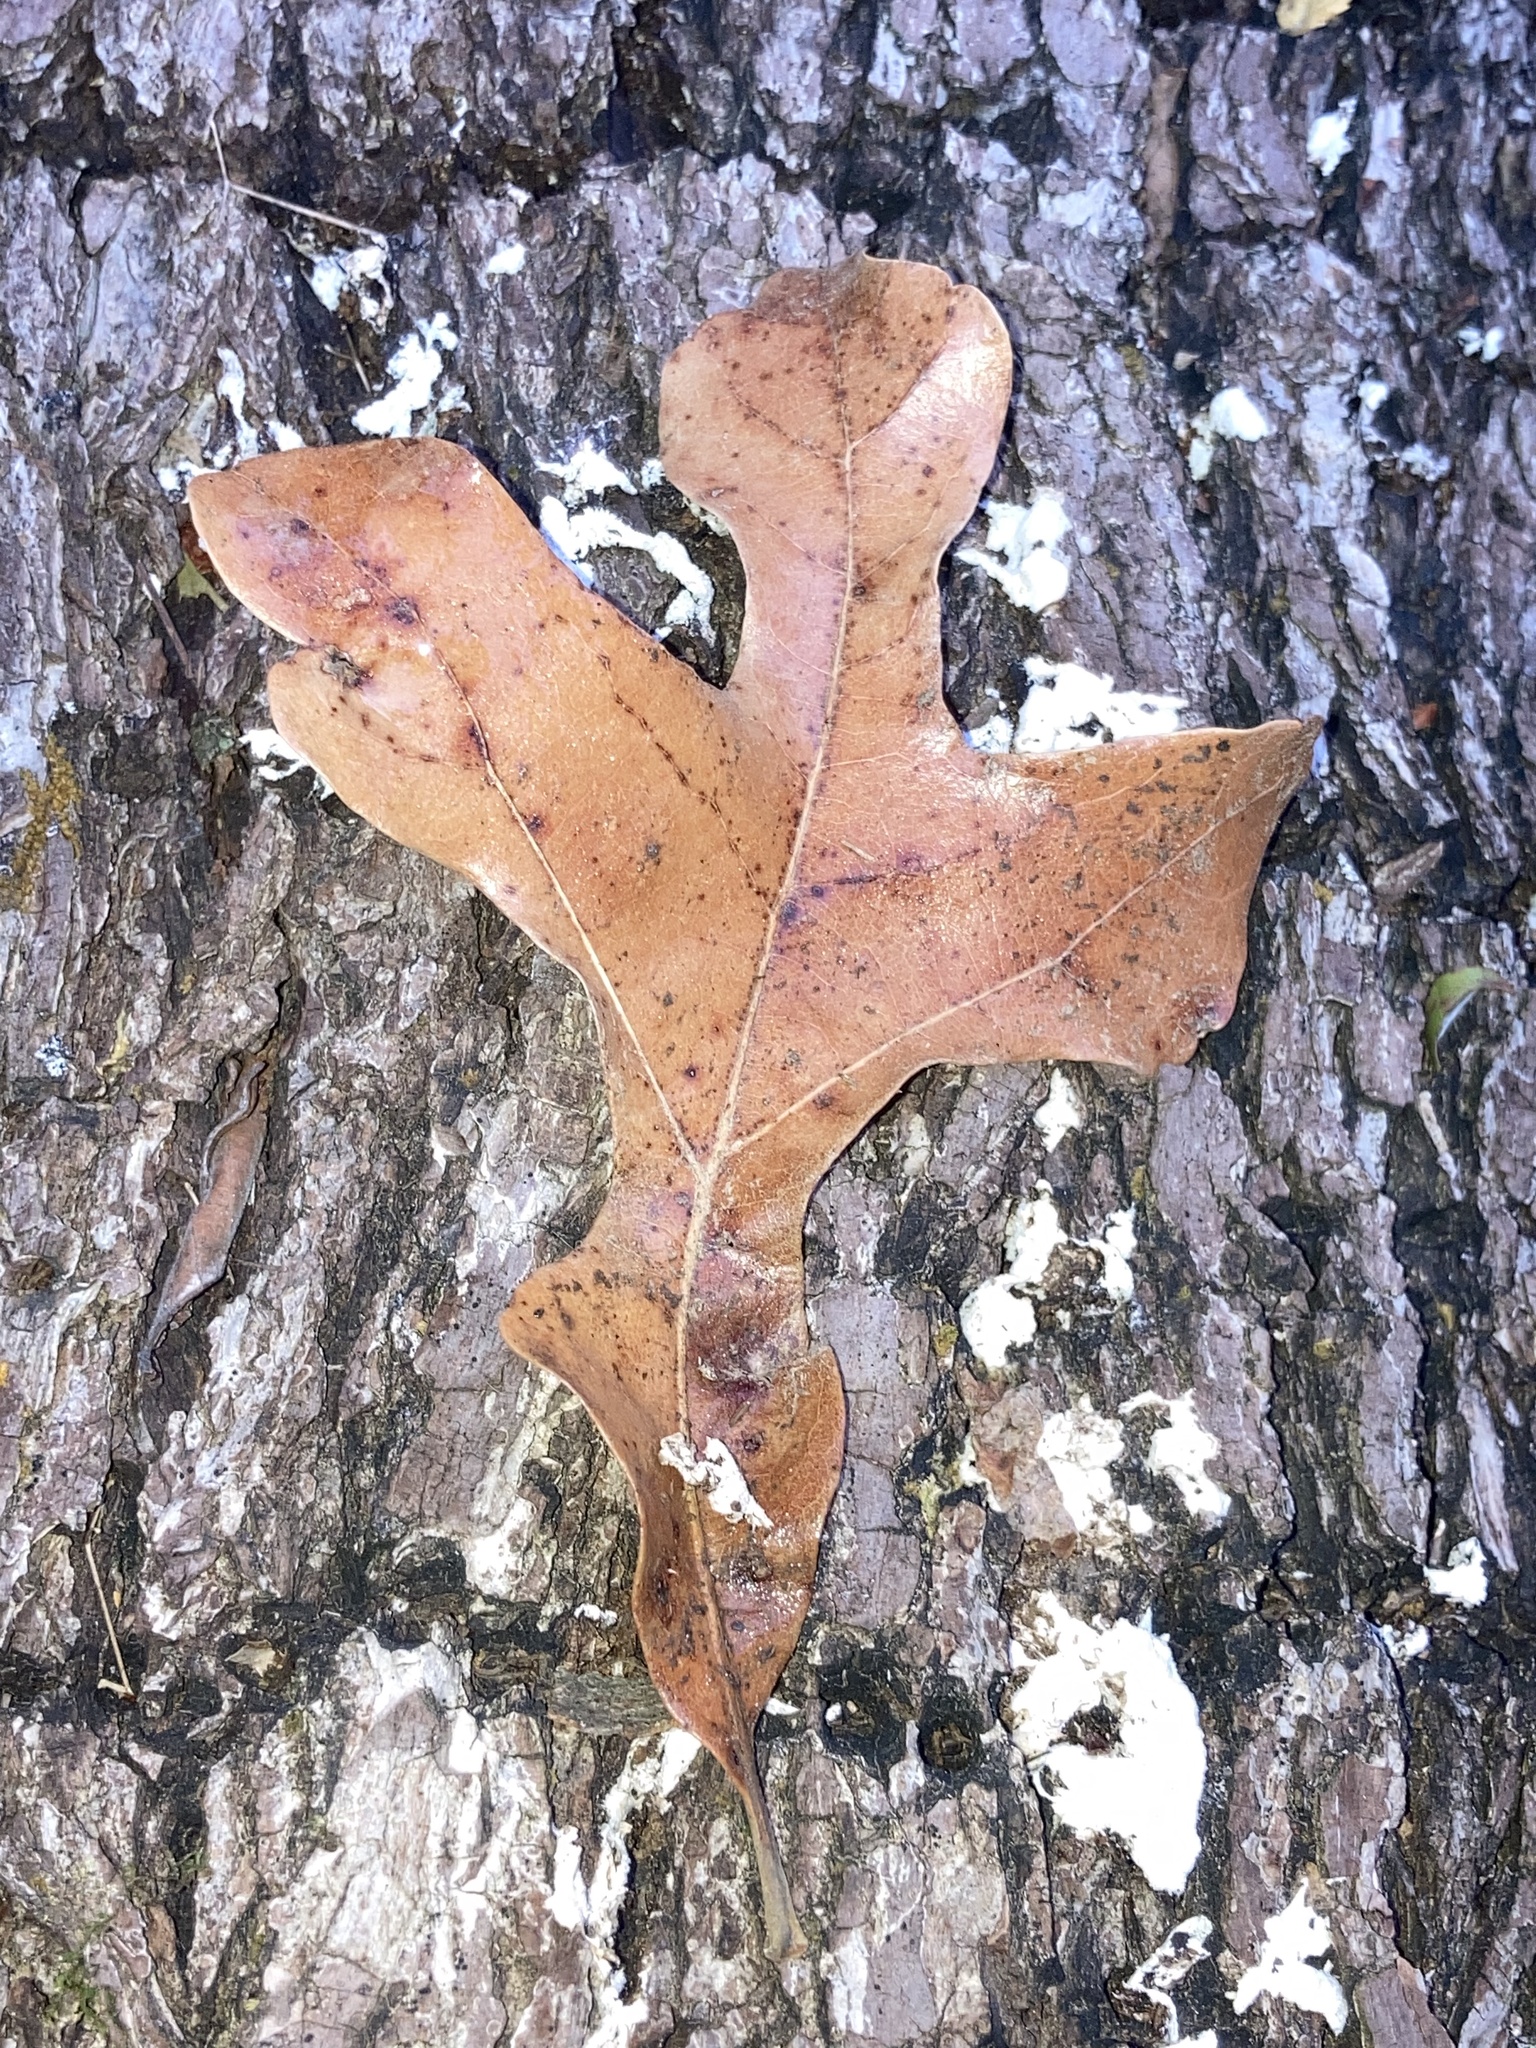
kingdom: Plantae
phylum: Tracheophyta
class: Magnoliopsida
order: Fagales
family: Fagaceae
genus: Quercus
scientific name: Quercus stellata
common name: Post oak
